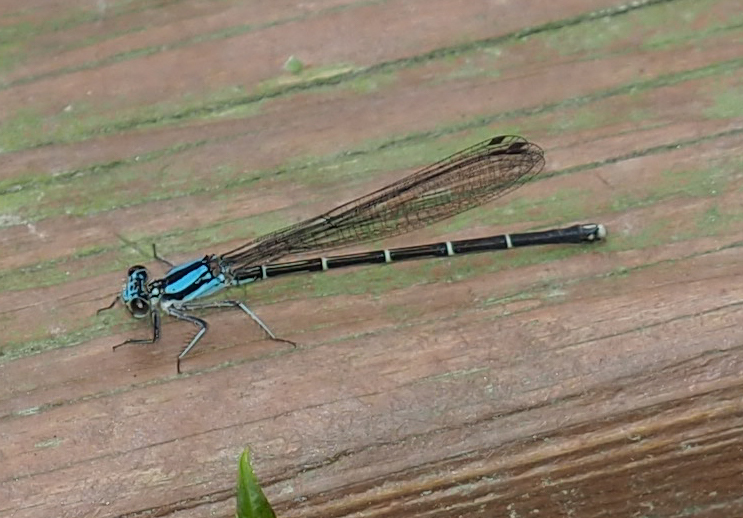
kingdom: Animalia
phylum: Arthropoda
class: Insecta
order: Odonata
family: Coenagrionidae
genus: Argia
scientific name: Argia tibialis
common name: Blue-tipped dancer
